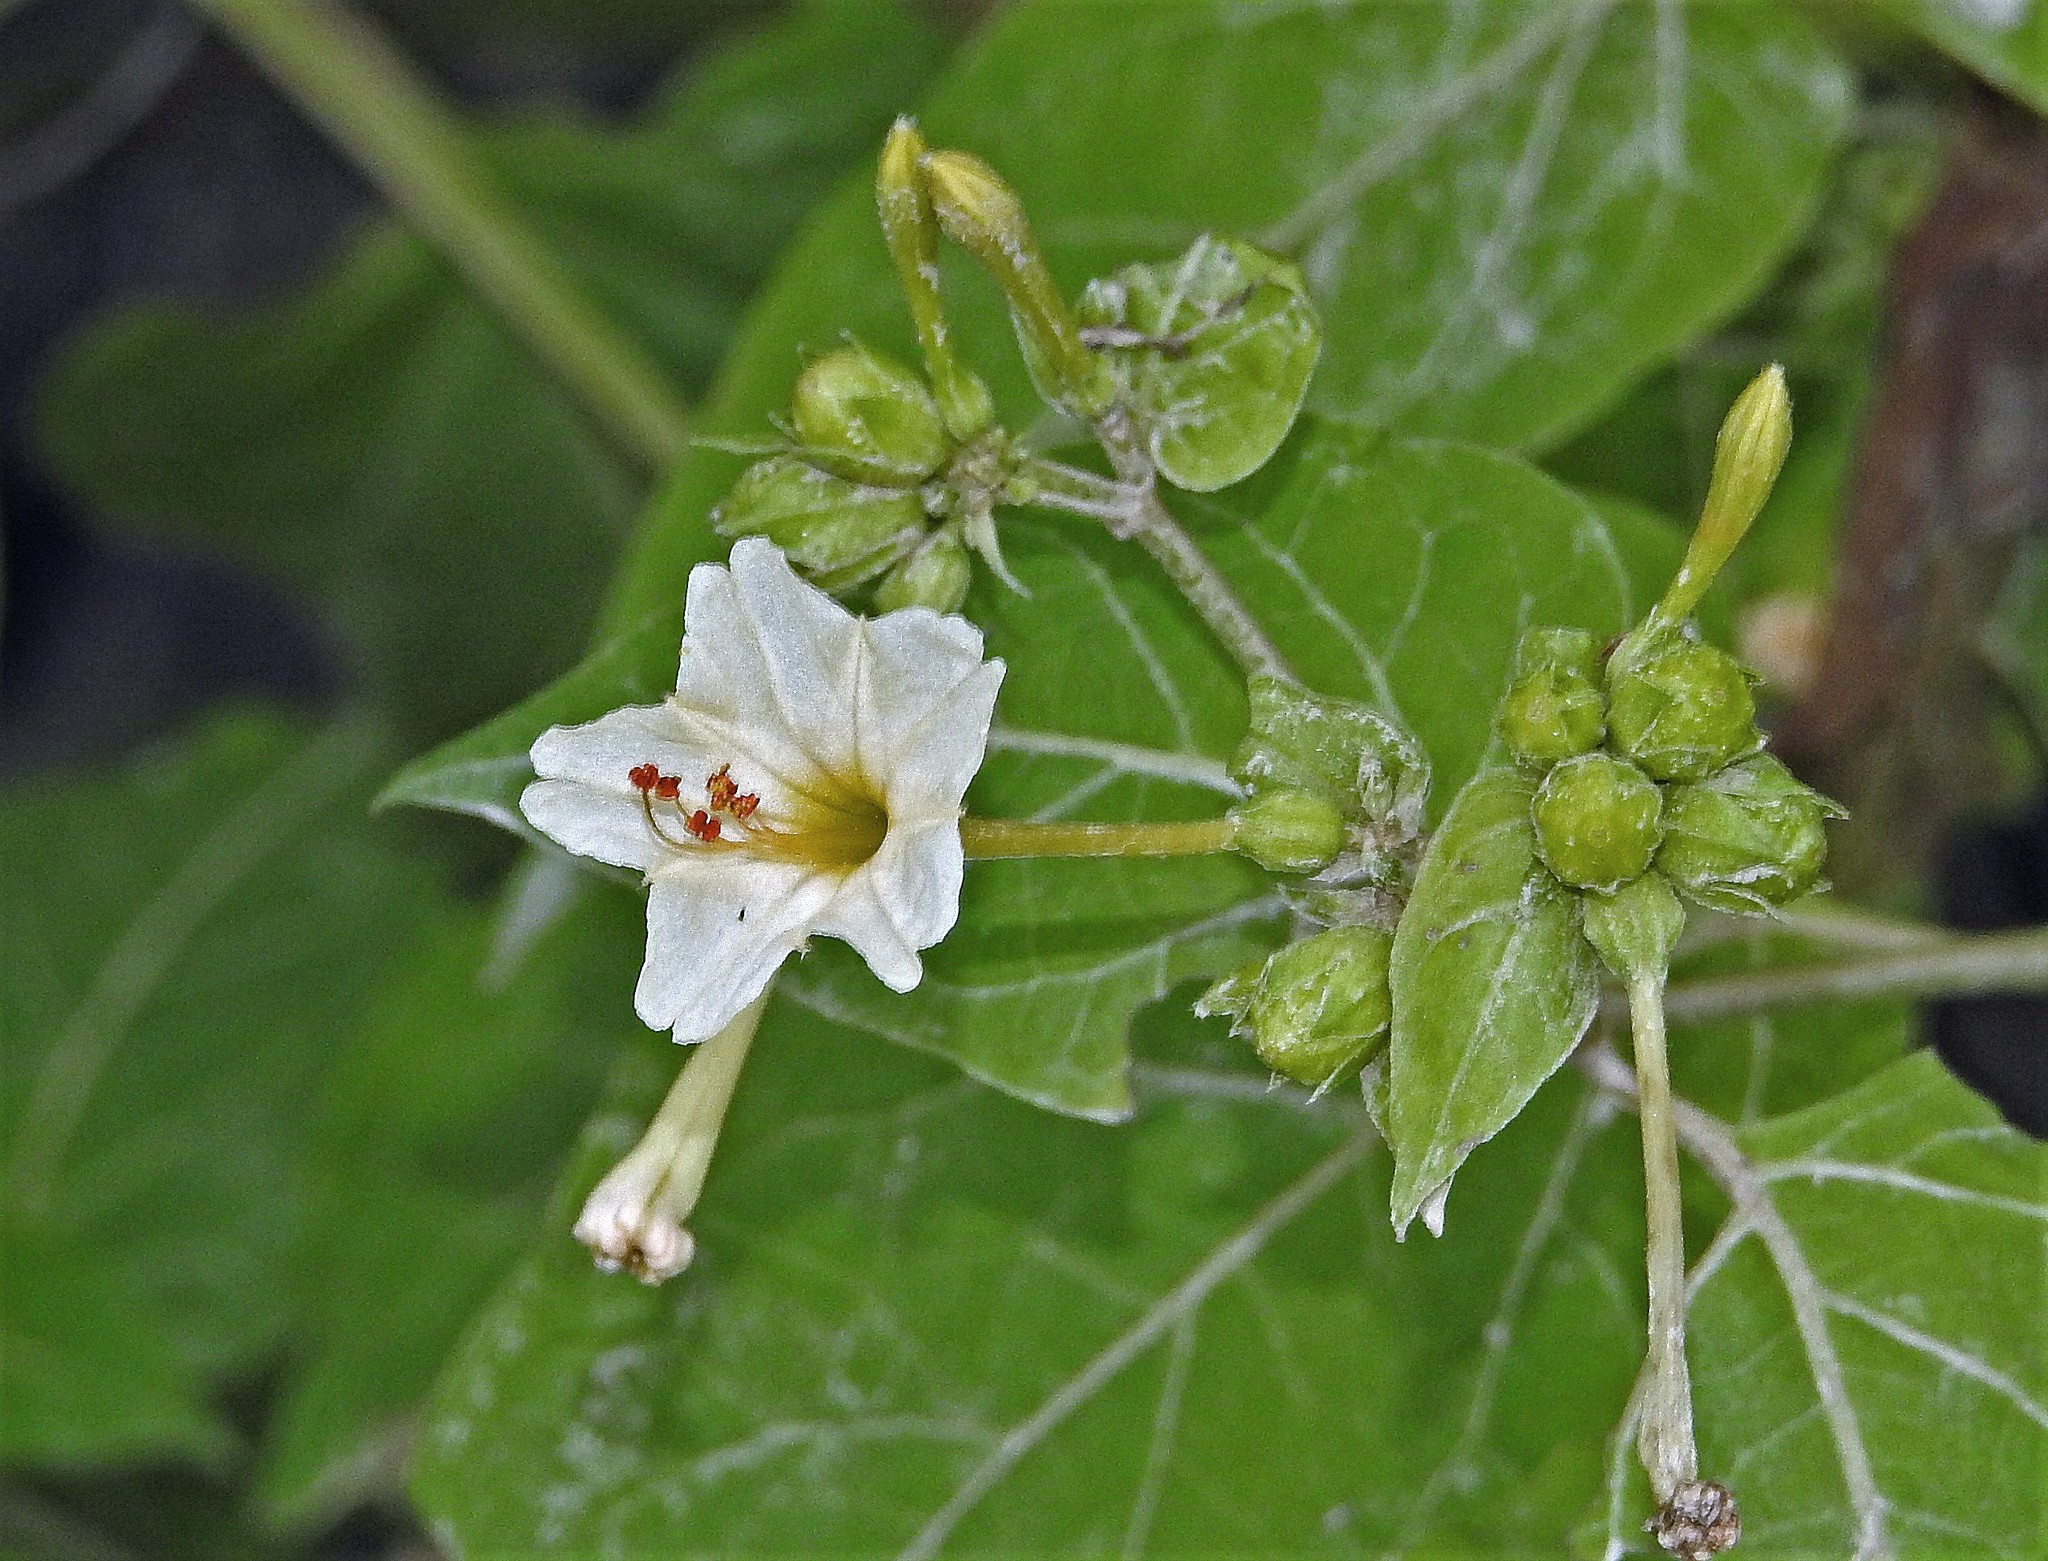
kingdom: Plantae
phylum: Tracheophyta
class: Magnoliopsida
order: Caryophyllales
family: Nyctaginaceae
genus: Mirabilis
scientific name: Mirabilis jalapa
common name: Marvel-of-peru
